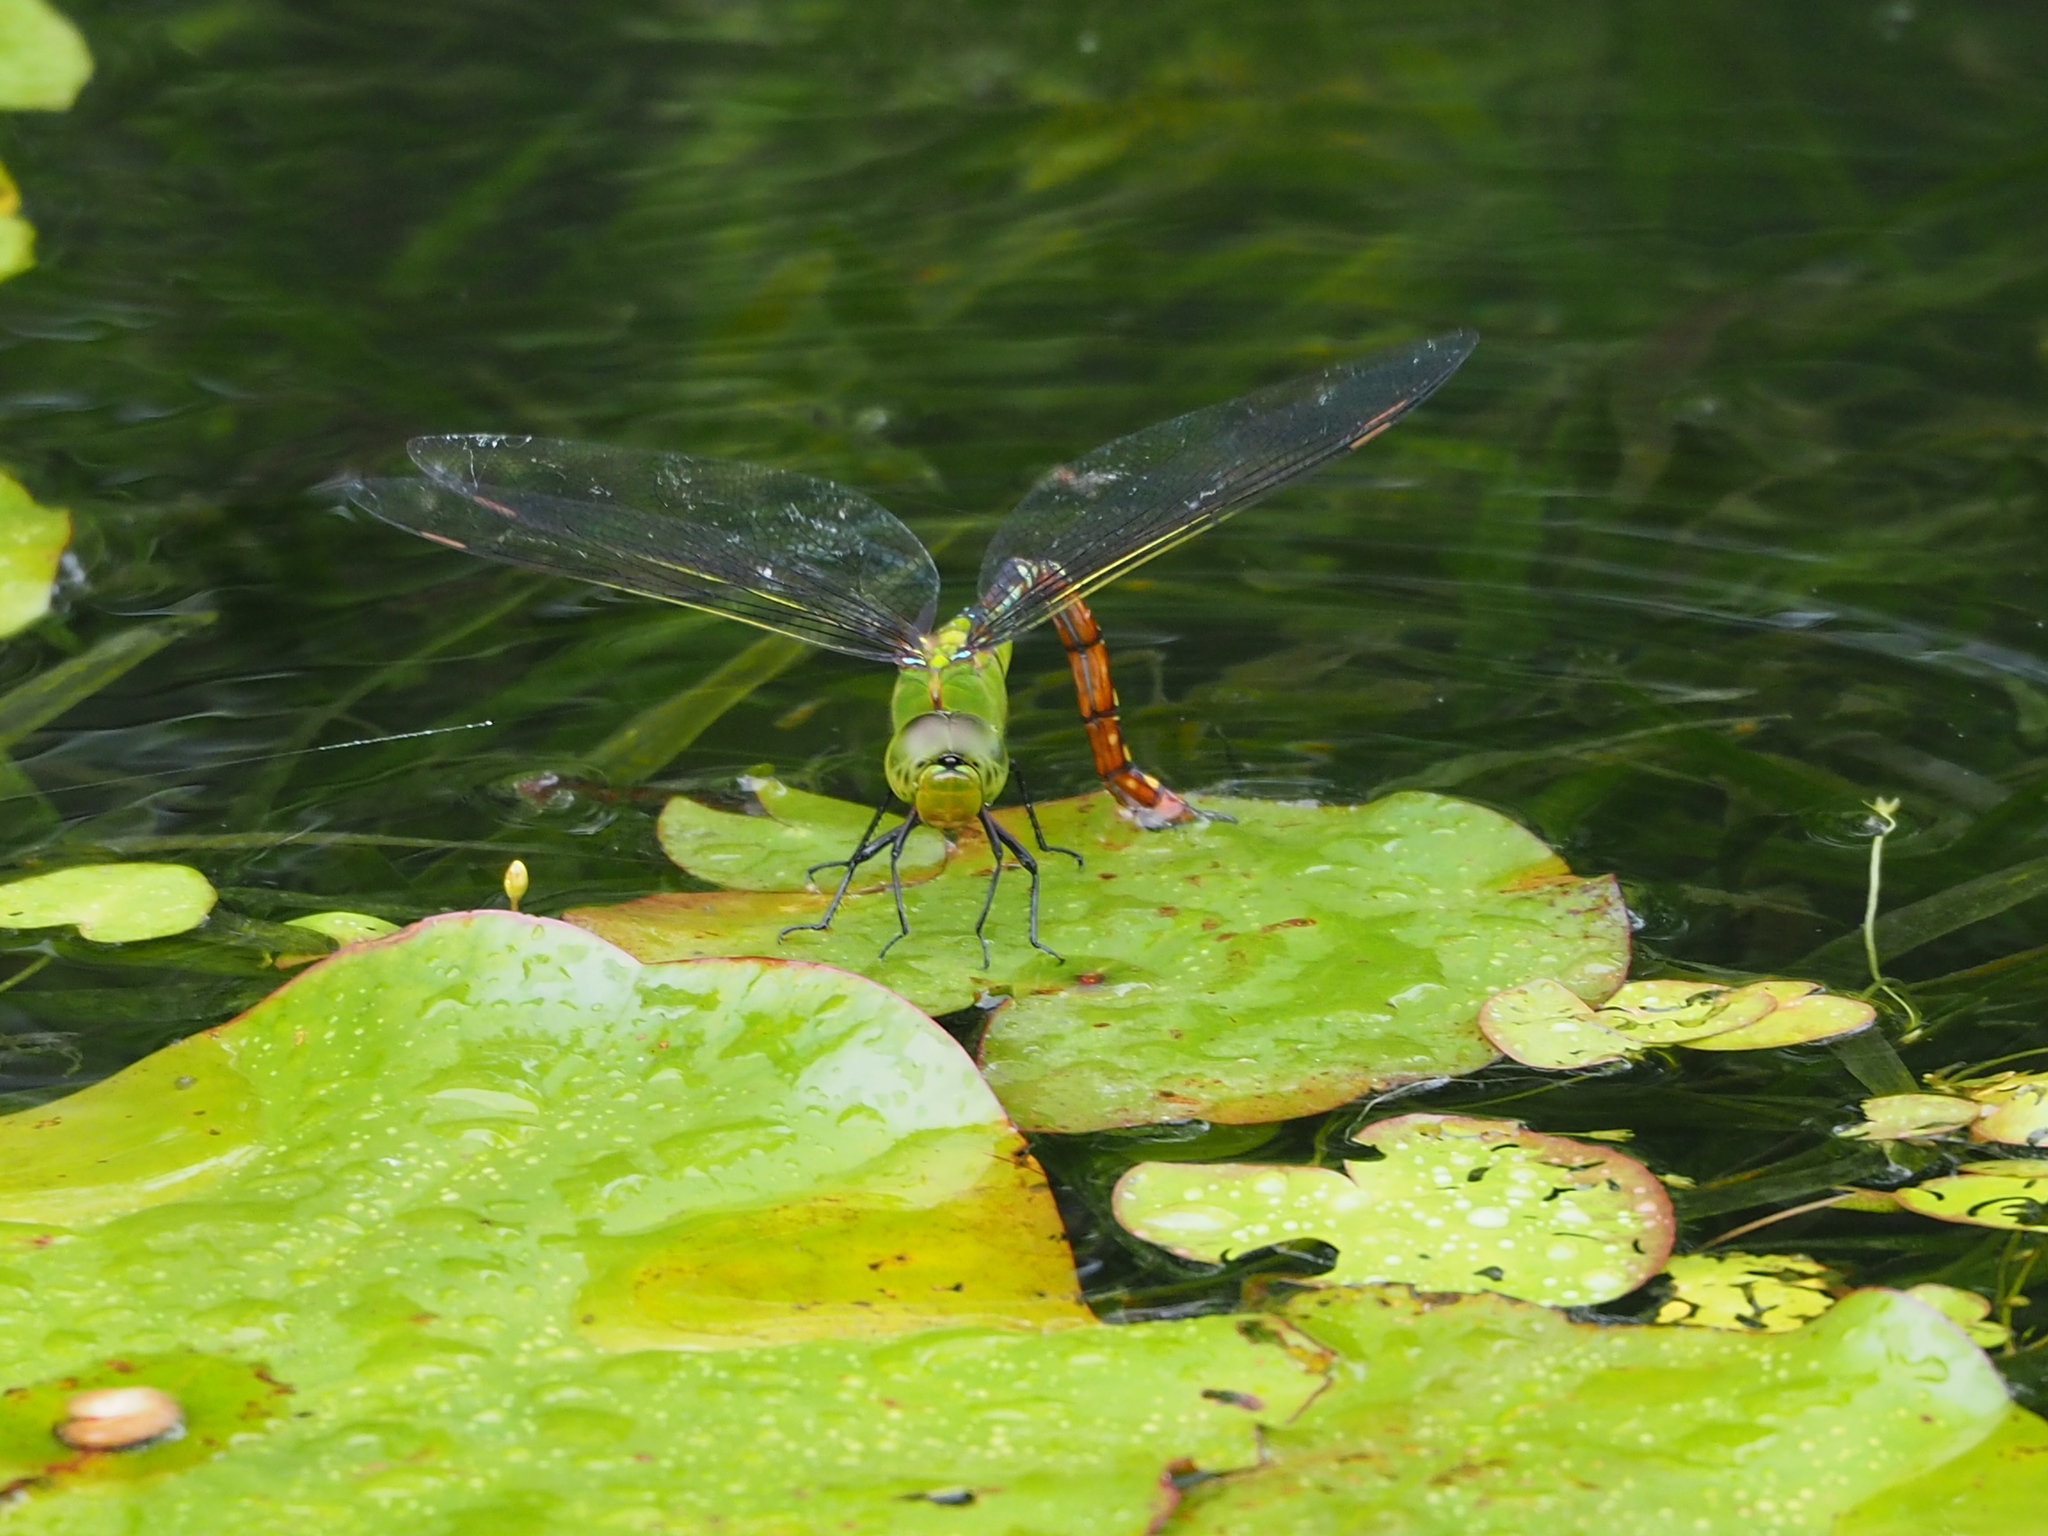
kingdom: Animalia
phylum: Arthropoda
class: Insecta
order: Odonata
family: Aeshnidae
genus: Anax
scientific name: Anax panybeus
